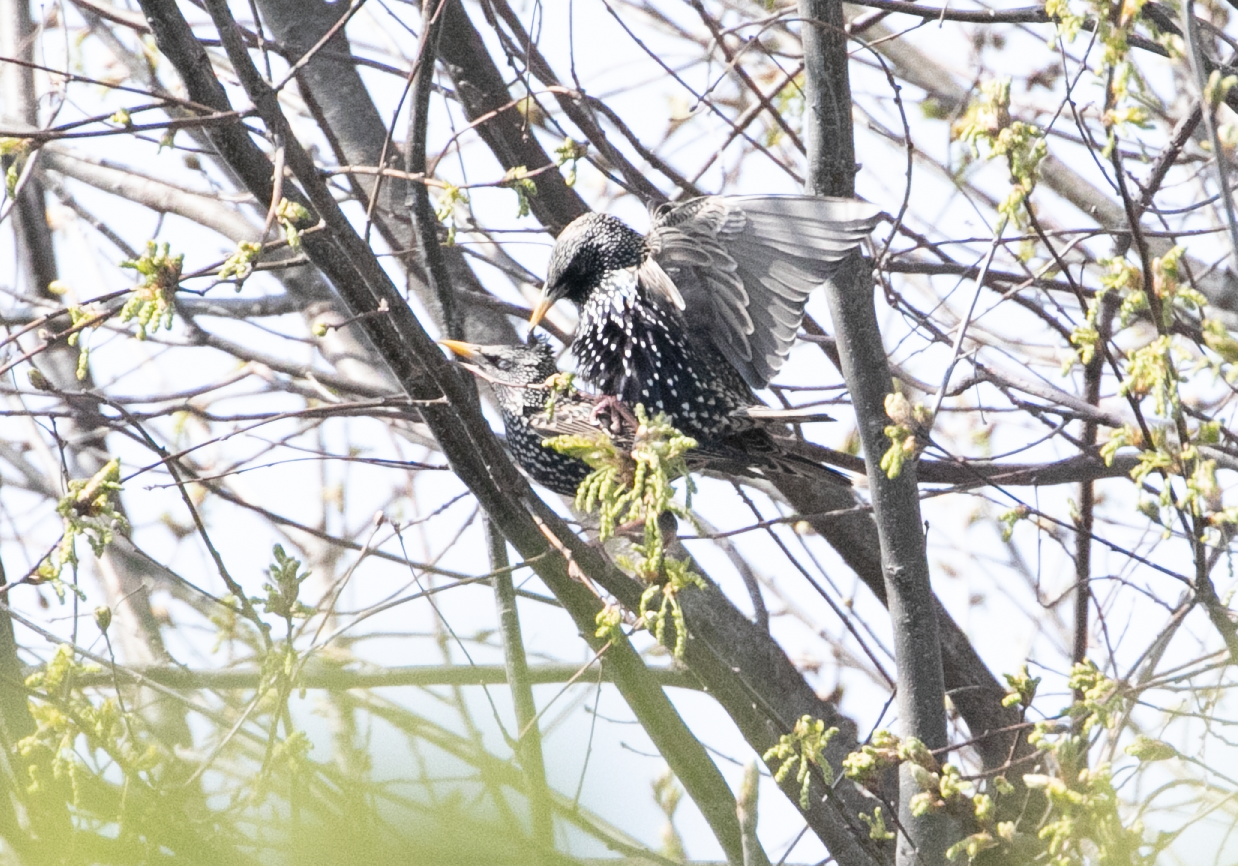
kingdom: Animalia
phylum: Chordata
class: Aves
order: Passeriformes
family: Sturnidae
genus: Sturnus
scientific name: Sturnus vulgaris
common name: Common starling
